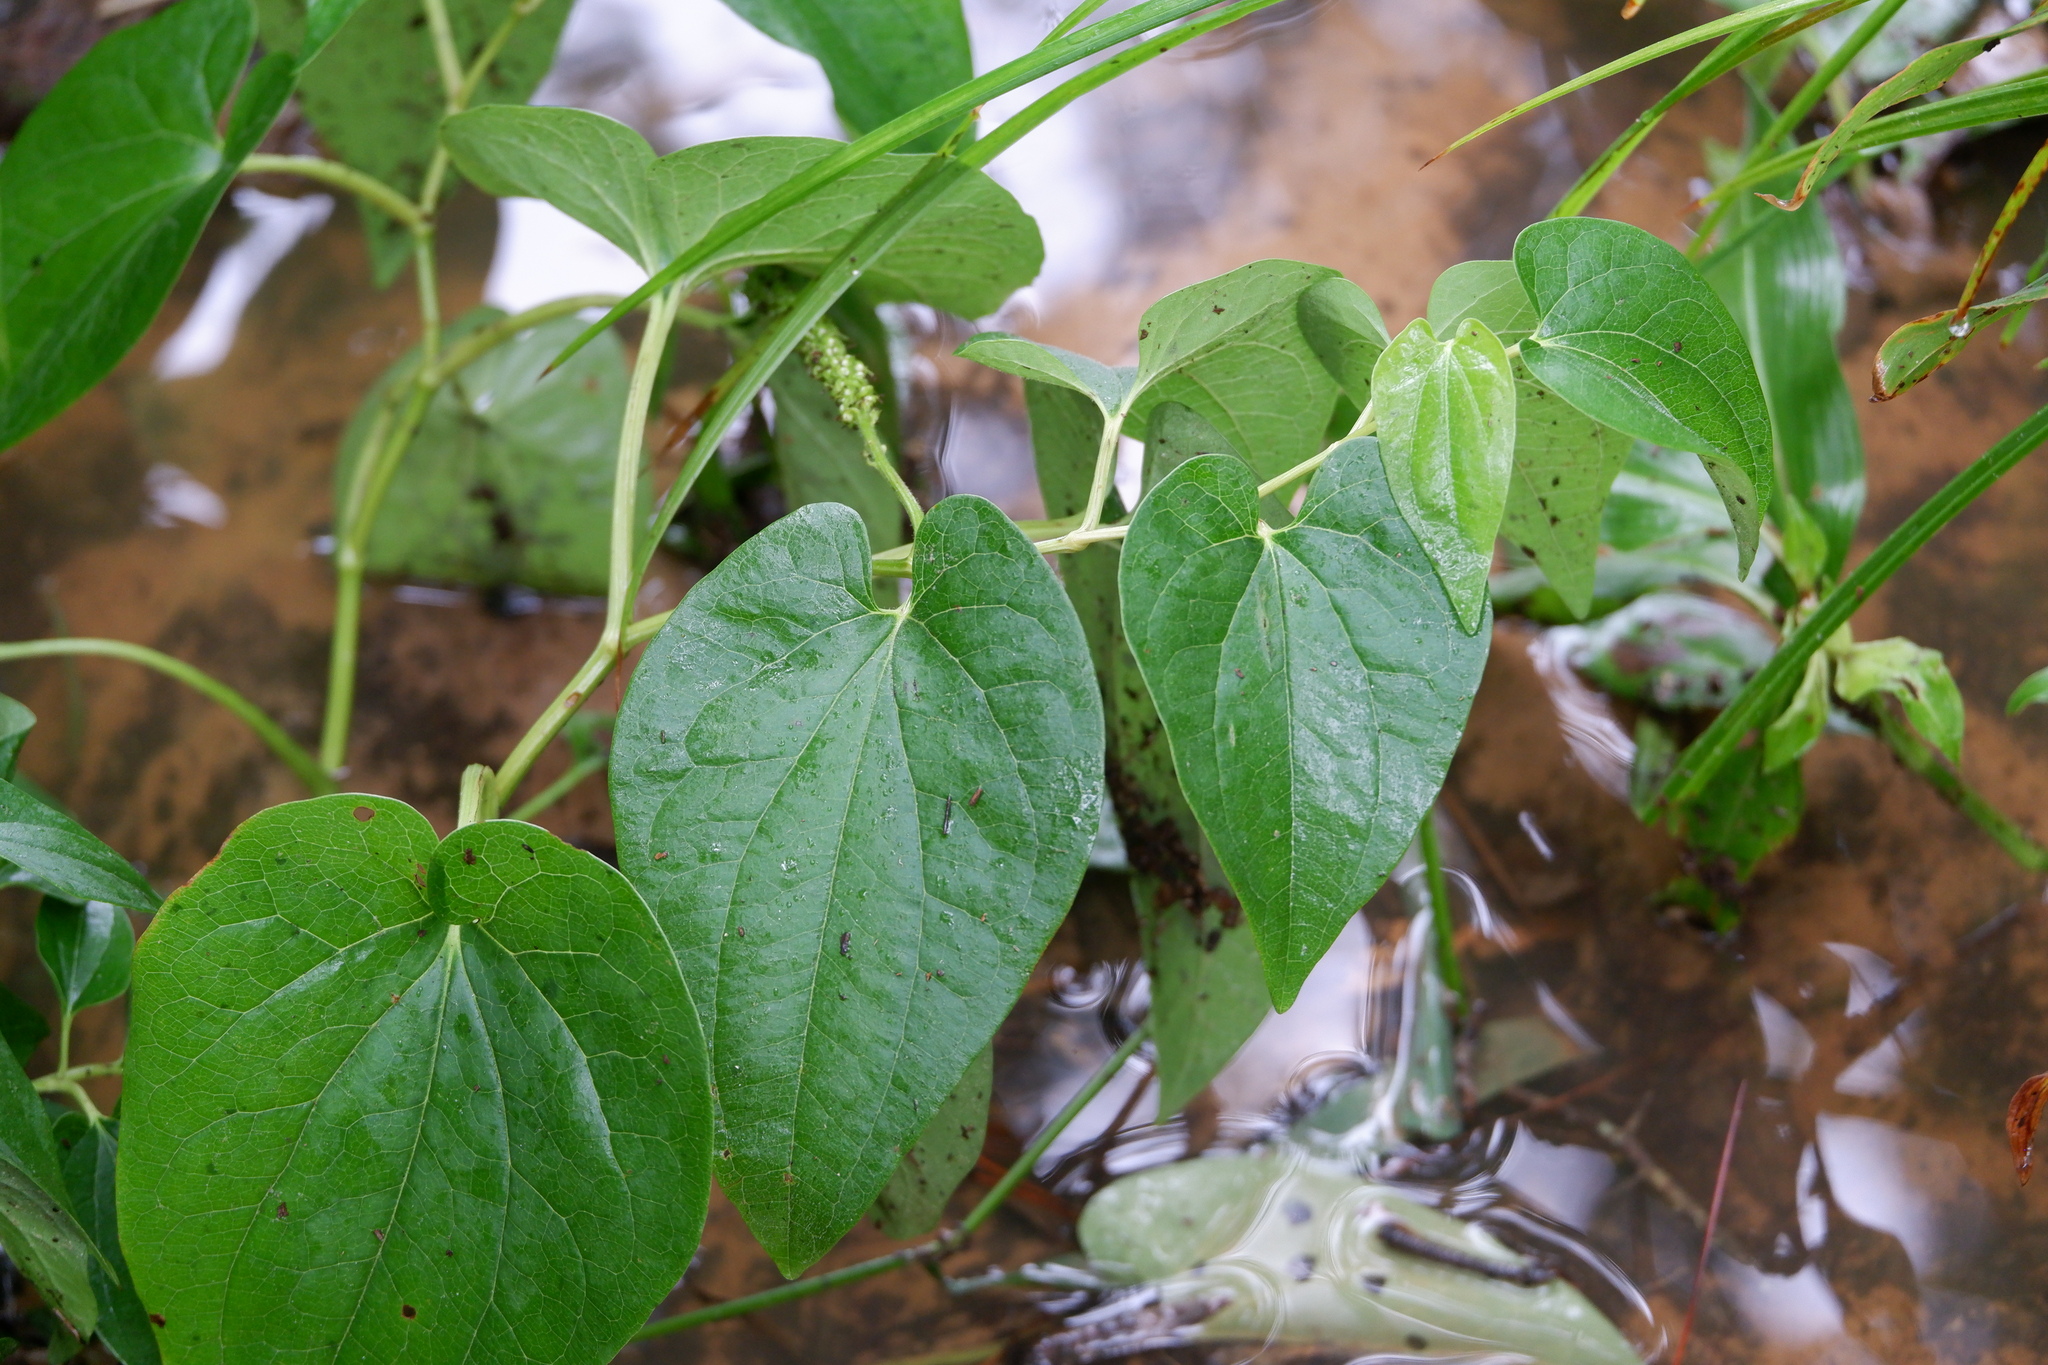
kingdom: Plantae
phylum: Tracheophyta
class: Magnoliopsida
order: Piperales
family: Saururaceae
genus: Saururus
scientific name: Saururus cernuus
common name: Lizard's-tail
